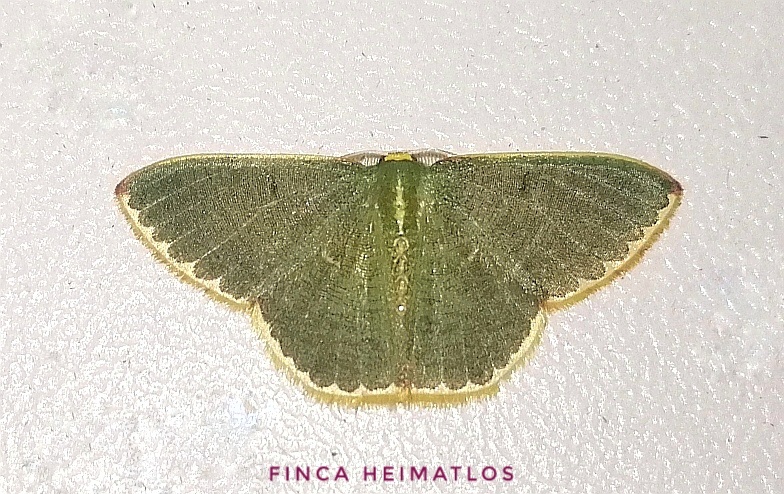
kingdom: Animalia
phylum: Arthropoda
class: Insecta
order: Lepidoptera
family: Geometridae
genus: Oospila
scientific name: Oospila decorata
